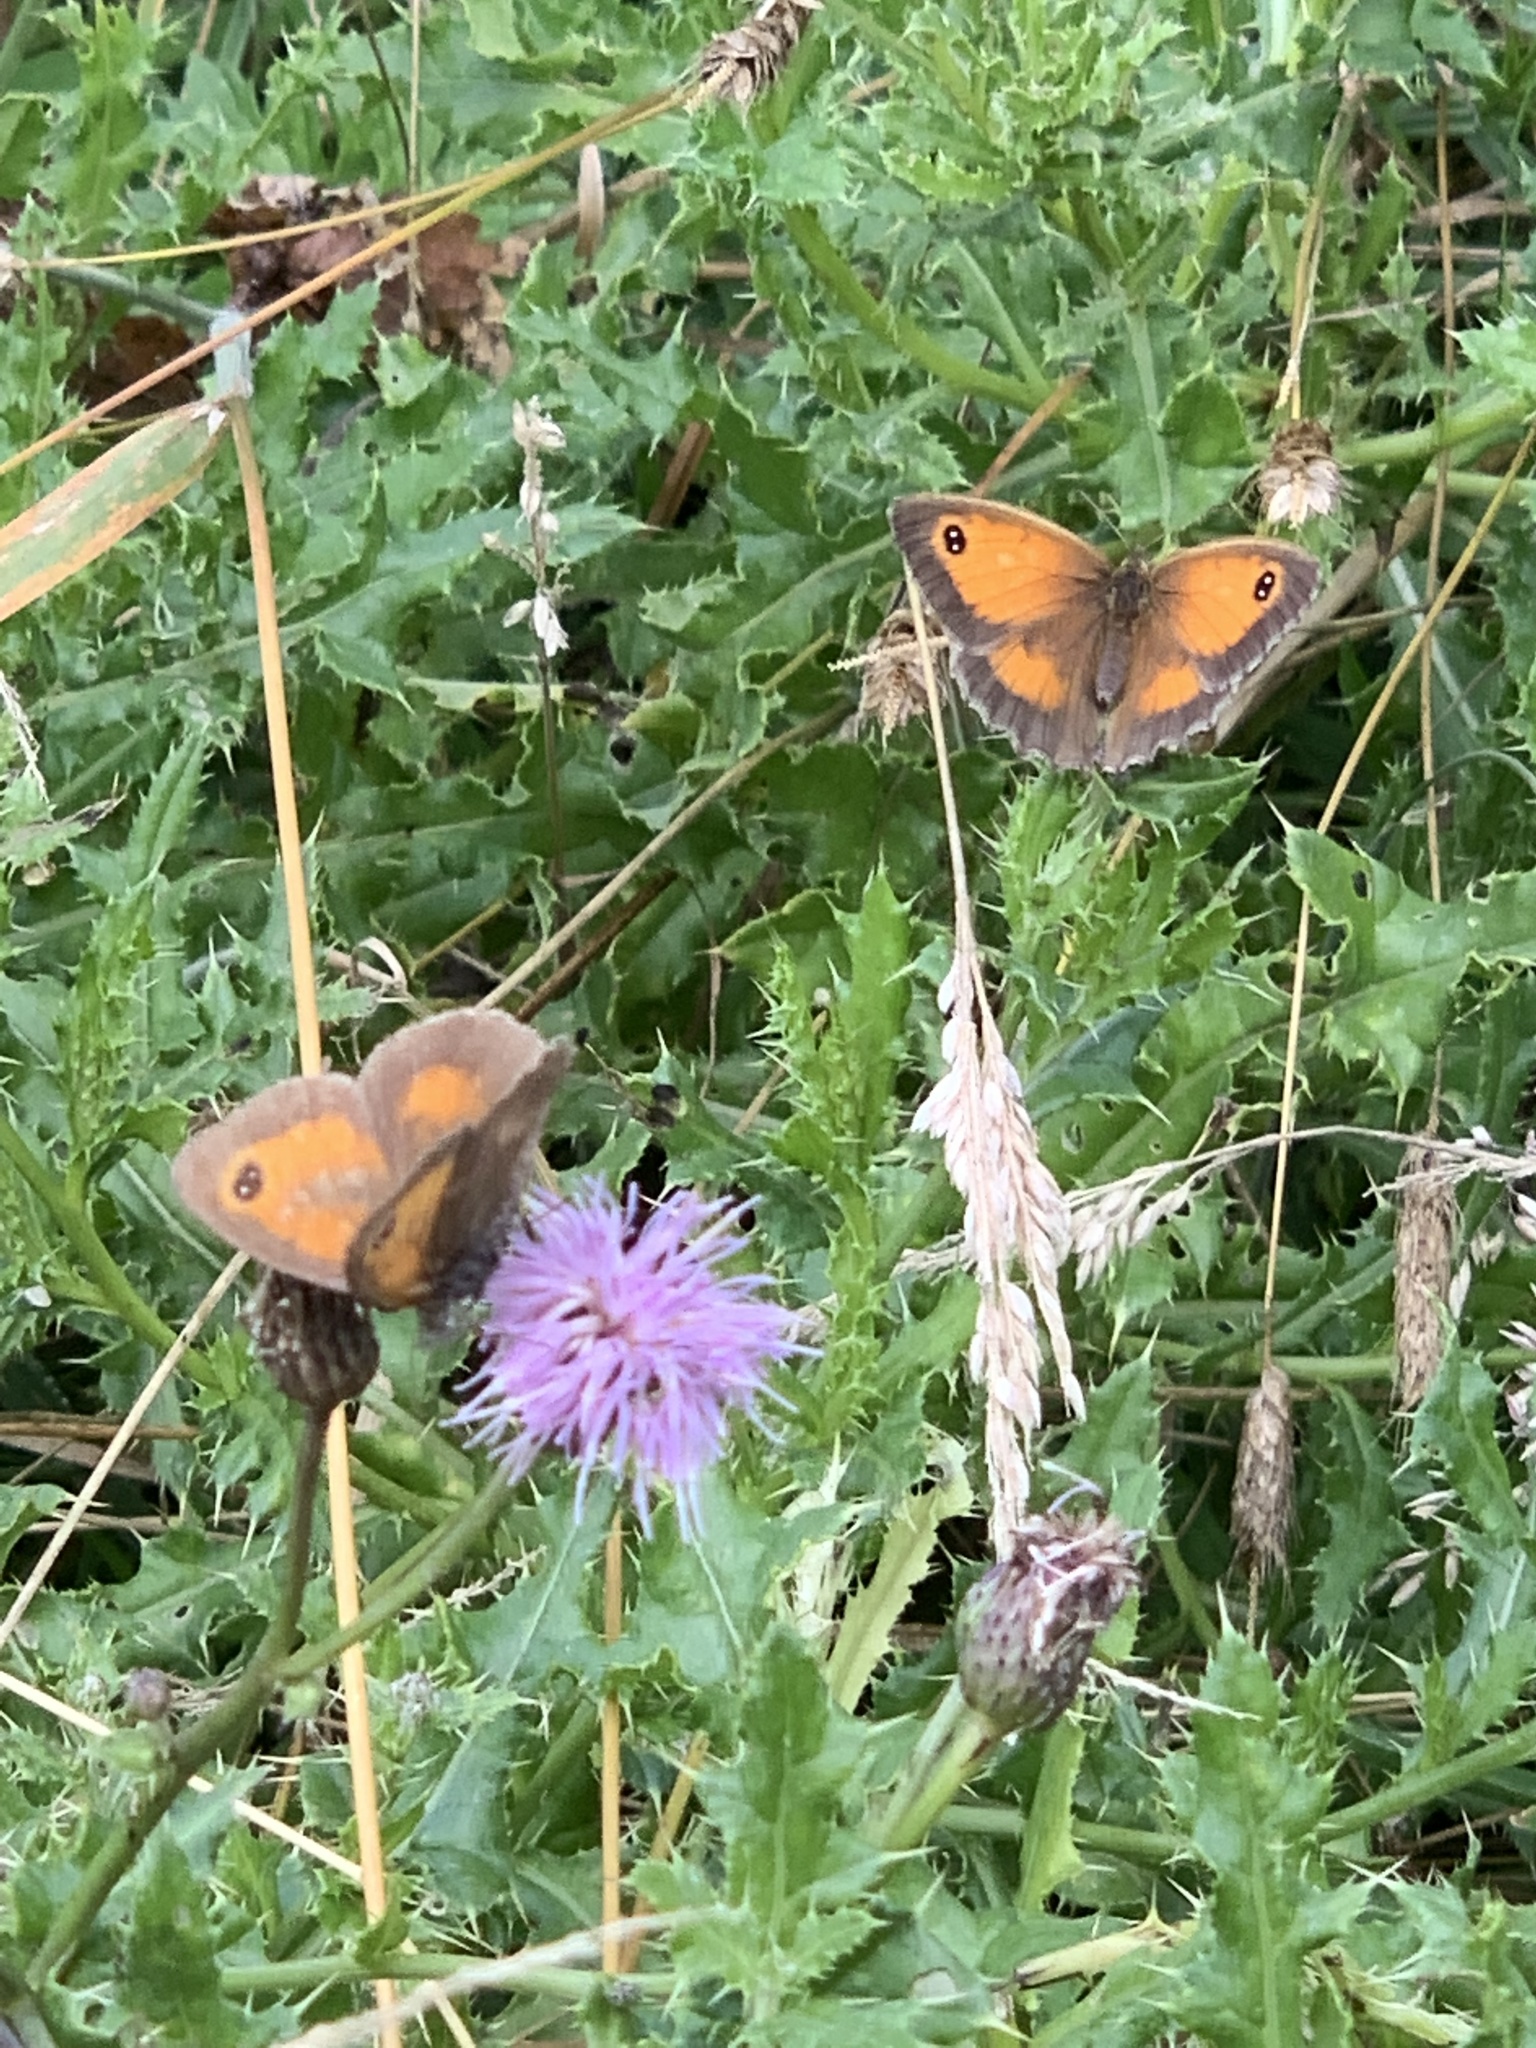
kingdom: Animalia
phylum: Arthropoda
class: Insecta
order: Lepidoptera
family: Nymphalidae
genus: Pyronia
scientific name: Pyronia tithonus
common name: Gatekeeper
